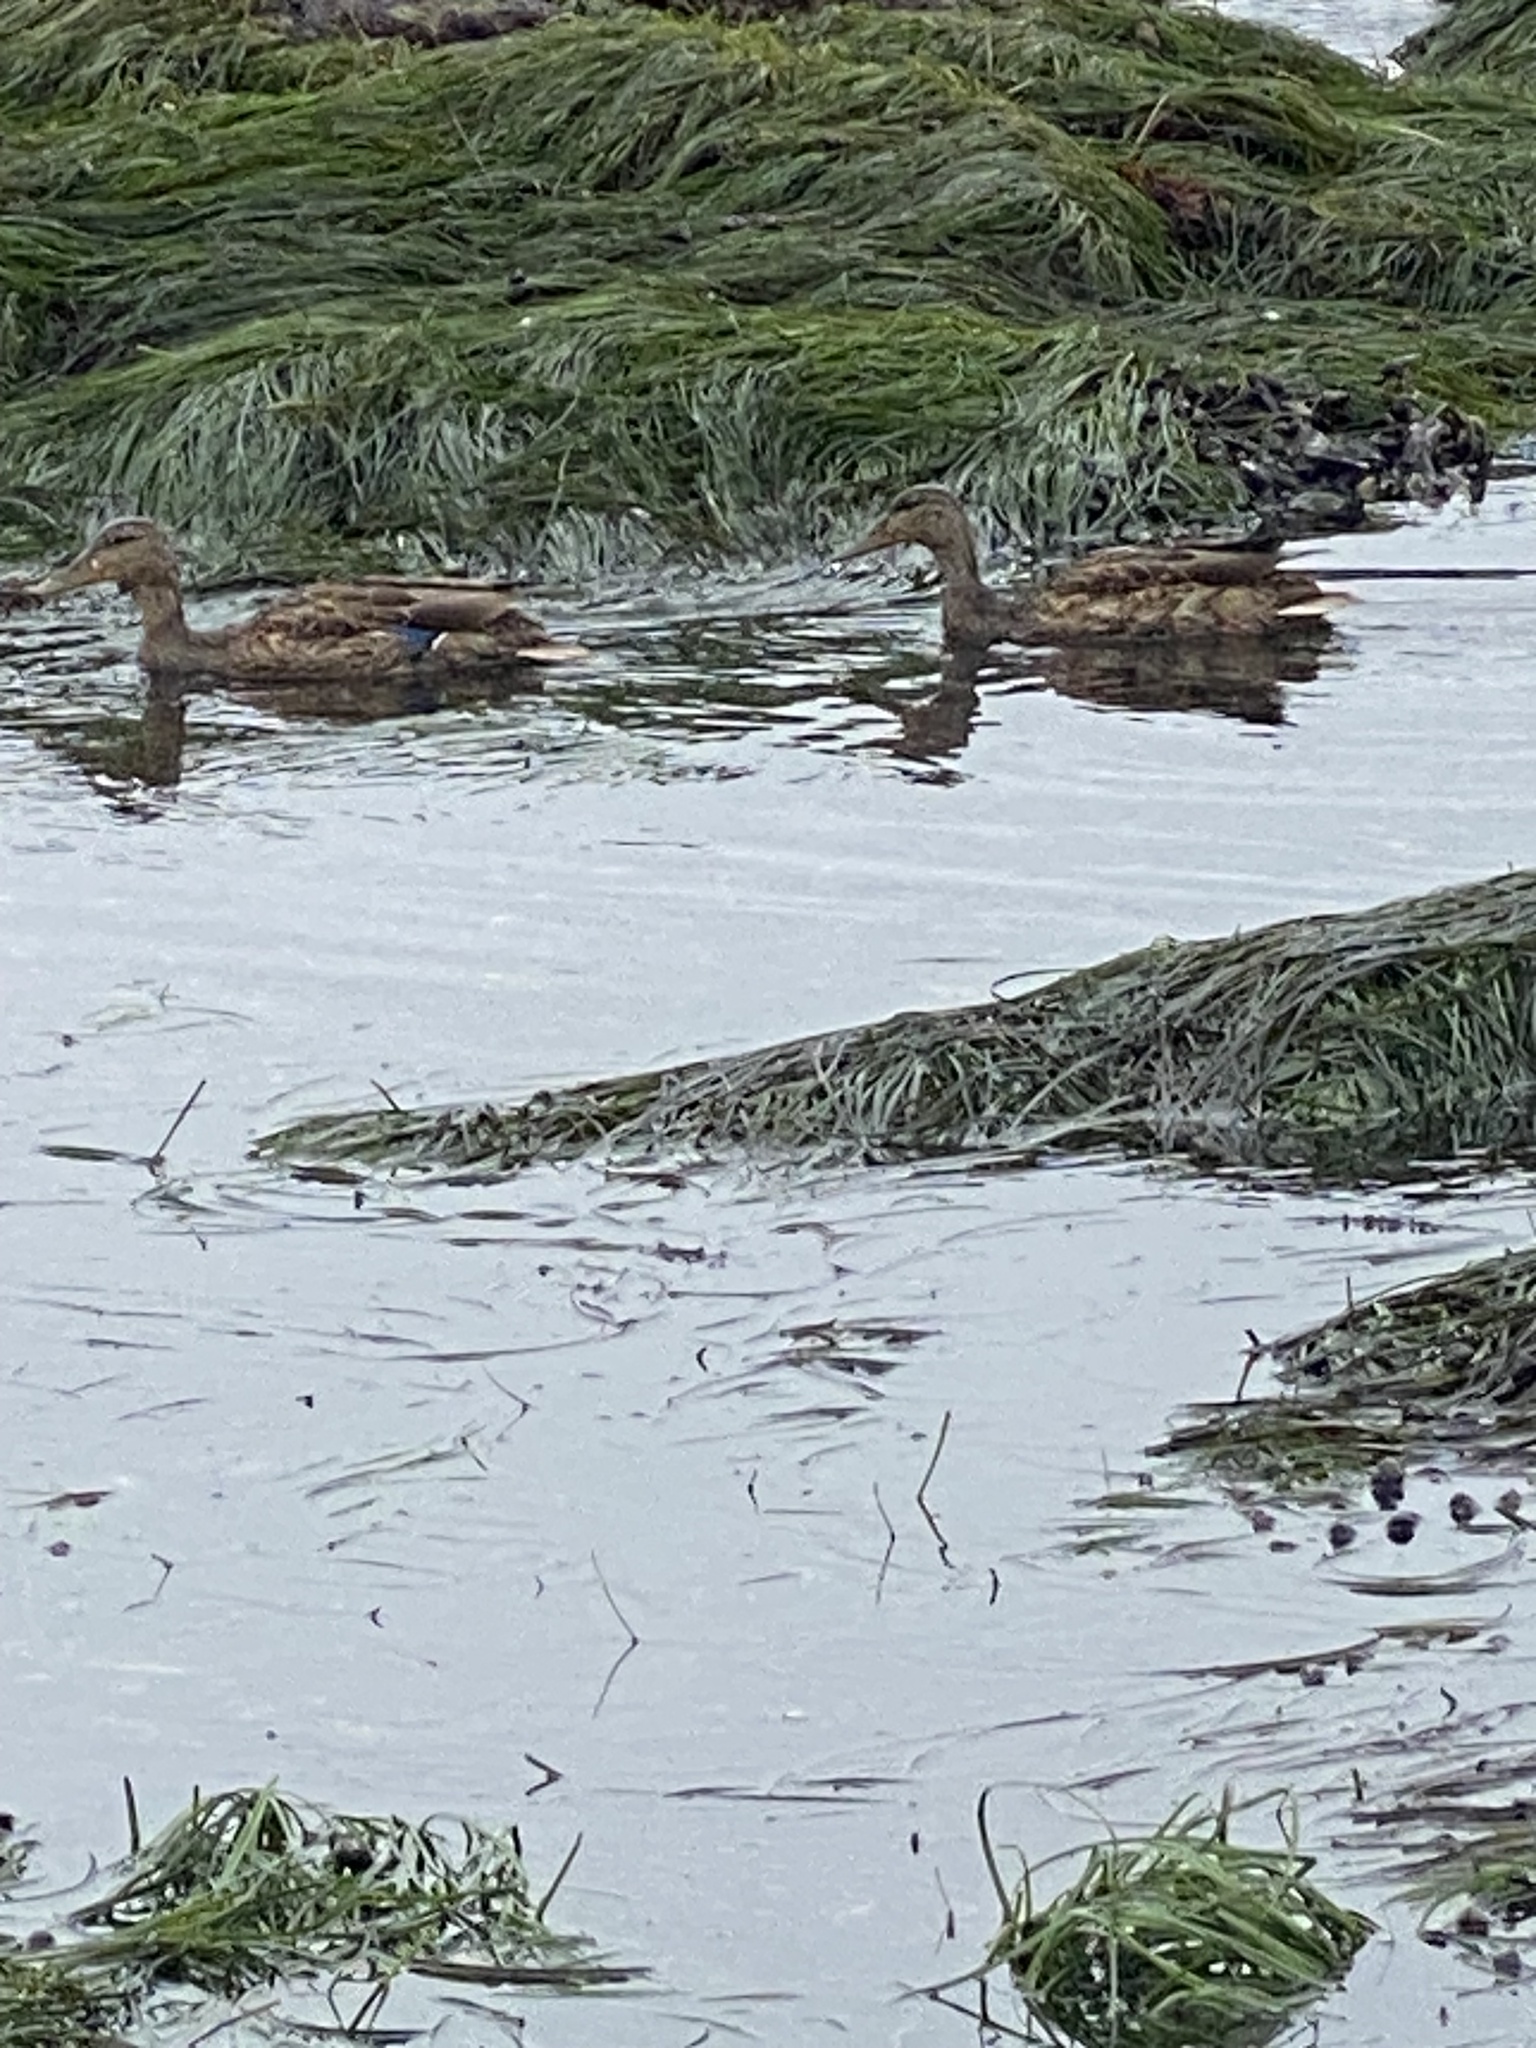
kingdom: Animalia
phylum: Chordata
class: Aves
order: Anseriformes
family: Anatidae
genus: Anas
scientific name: Anas platyrhynchos
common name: Mallard
